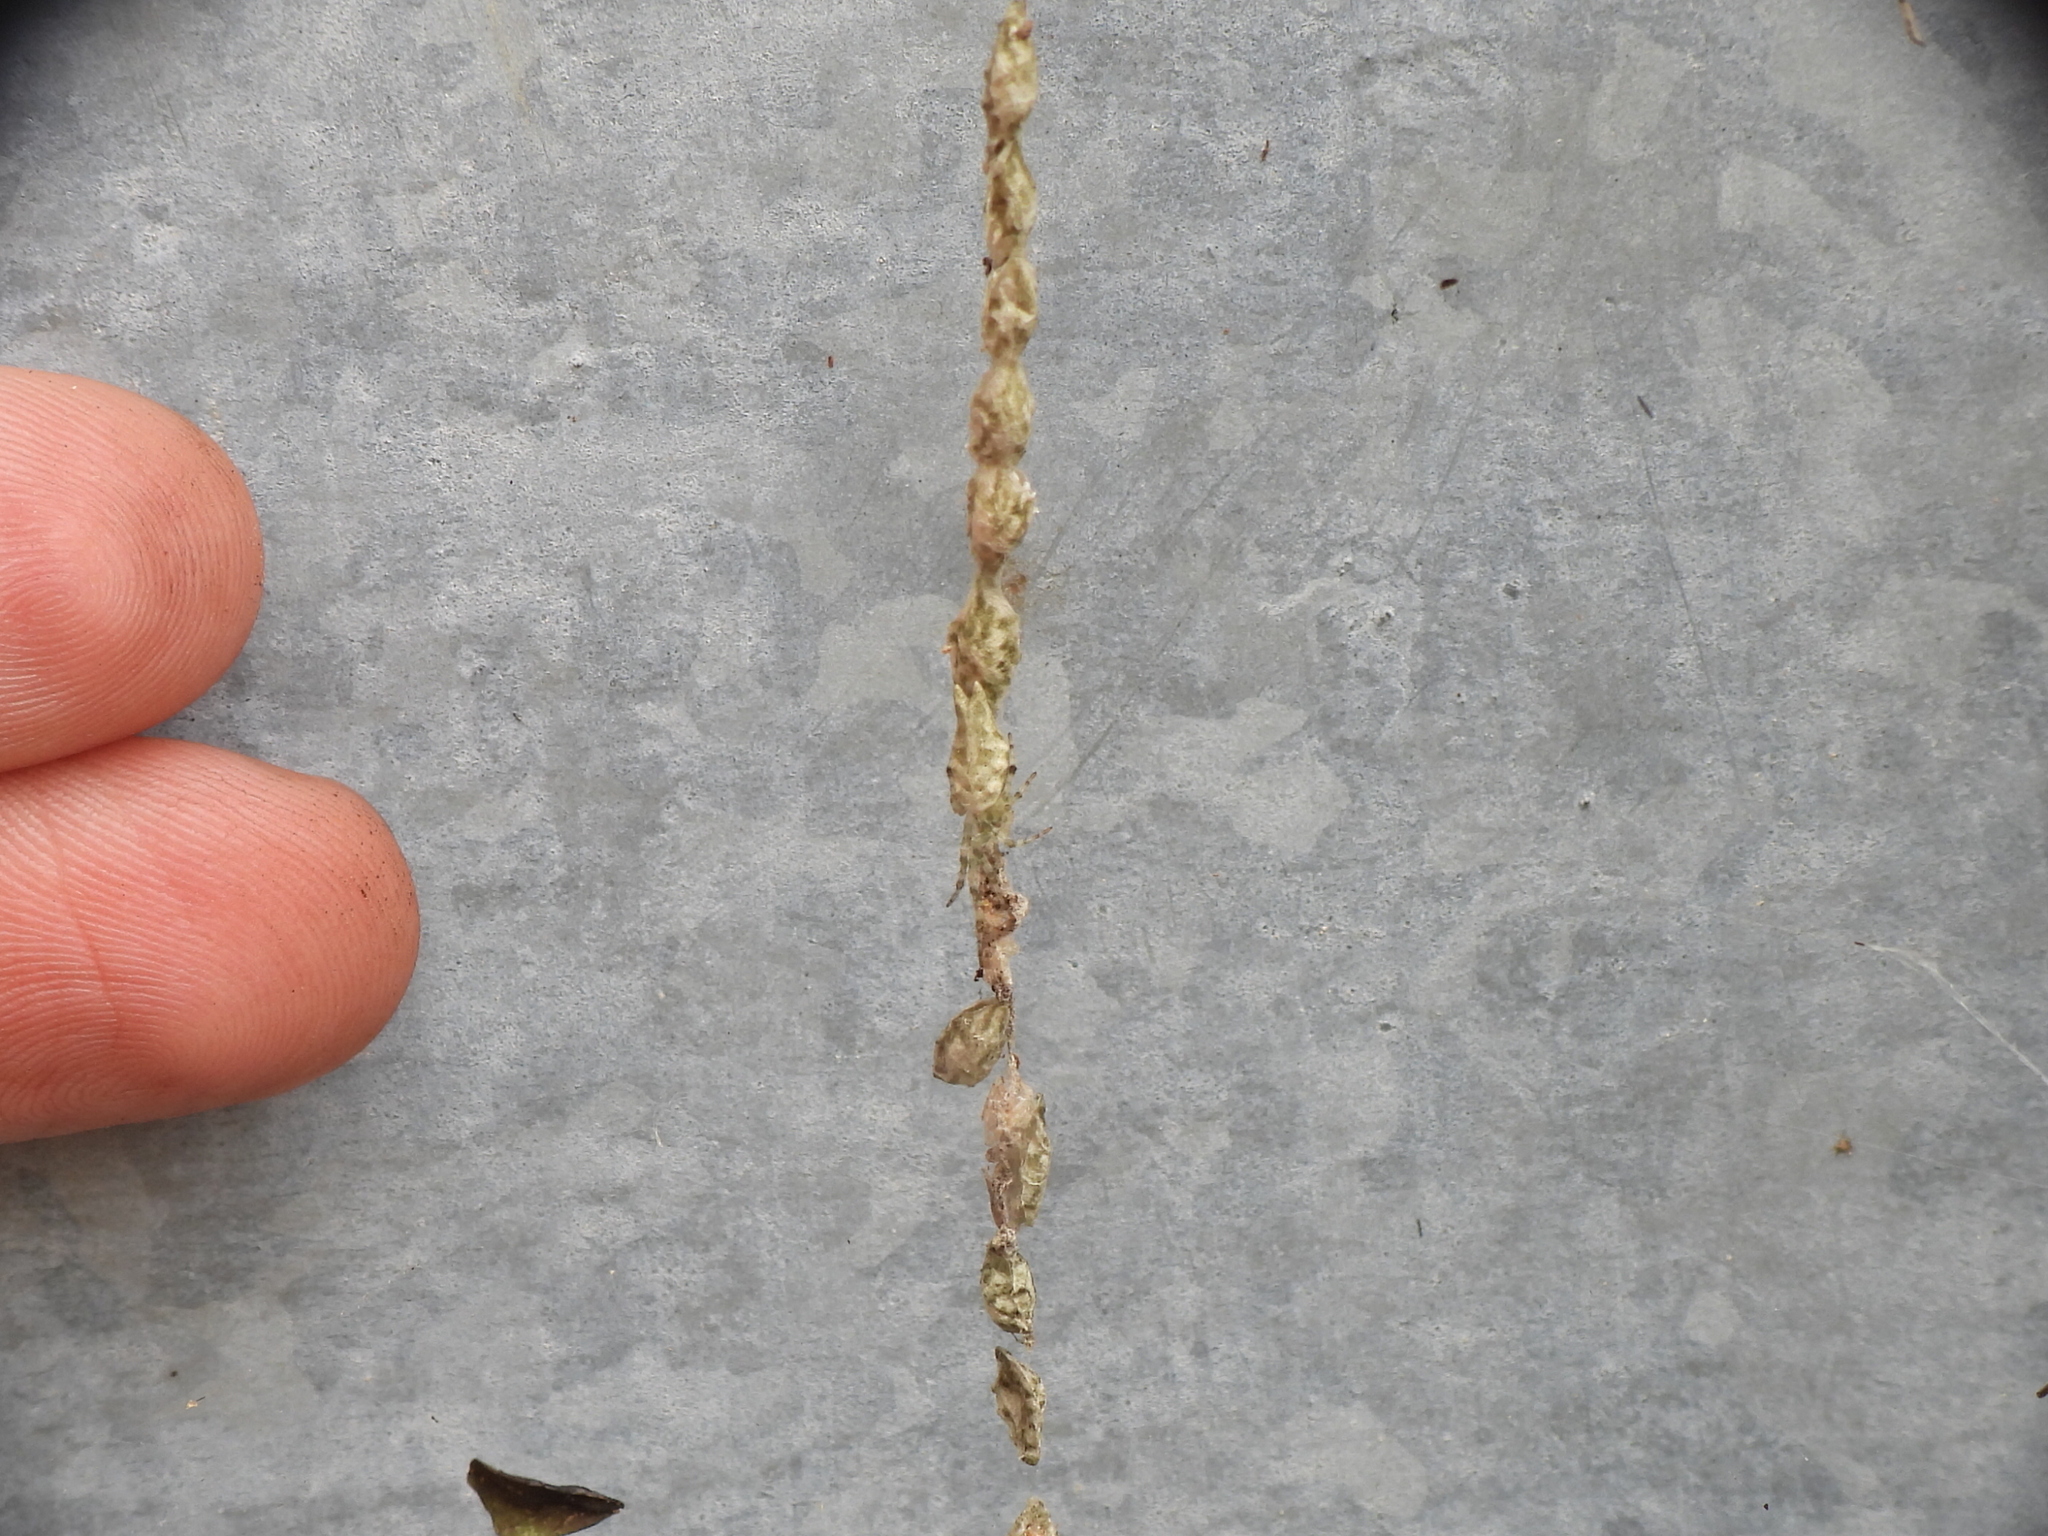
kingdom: Animalia
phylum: Arthropoda
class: Arachnida
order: Araneae
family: Araneidae
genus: Allocyclosa
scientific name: Allocyclosa bifurca
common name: Orb weavers
